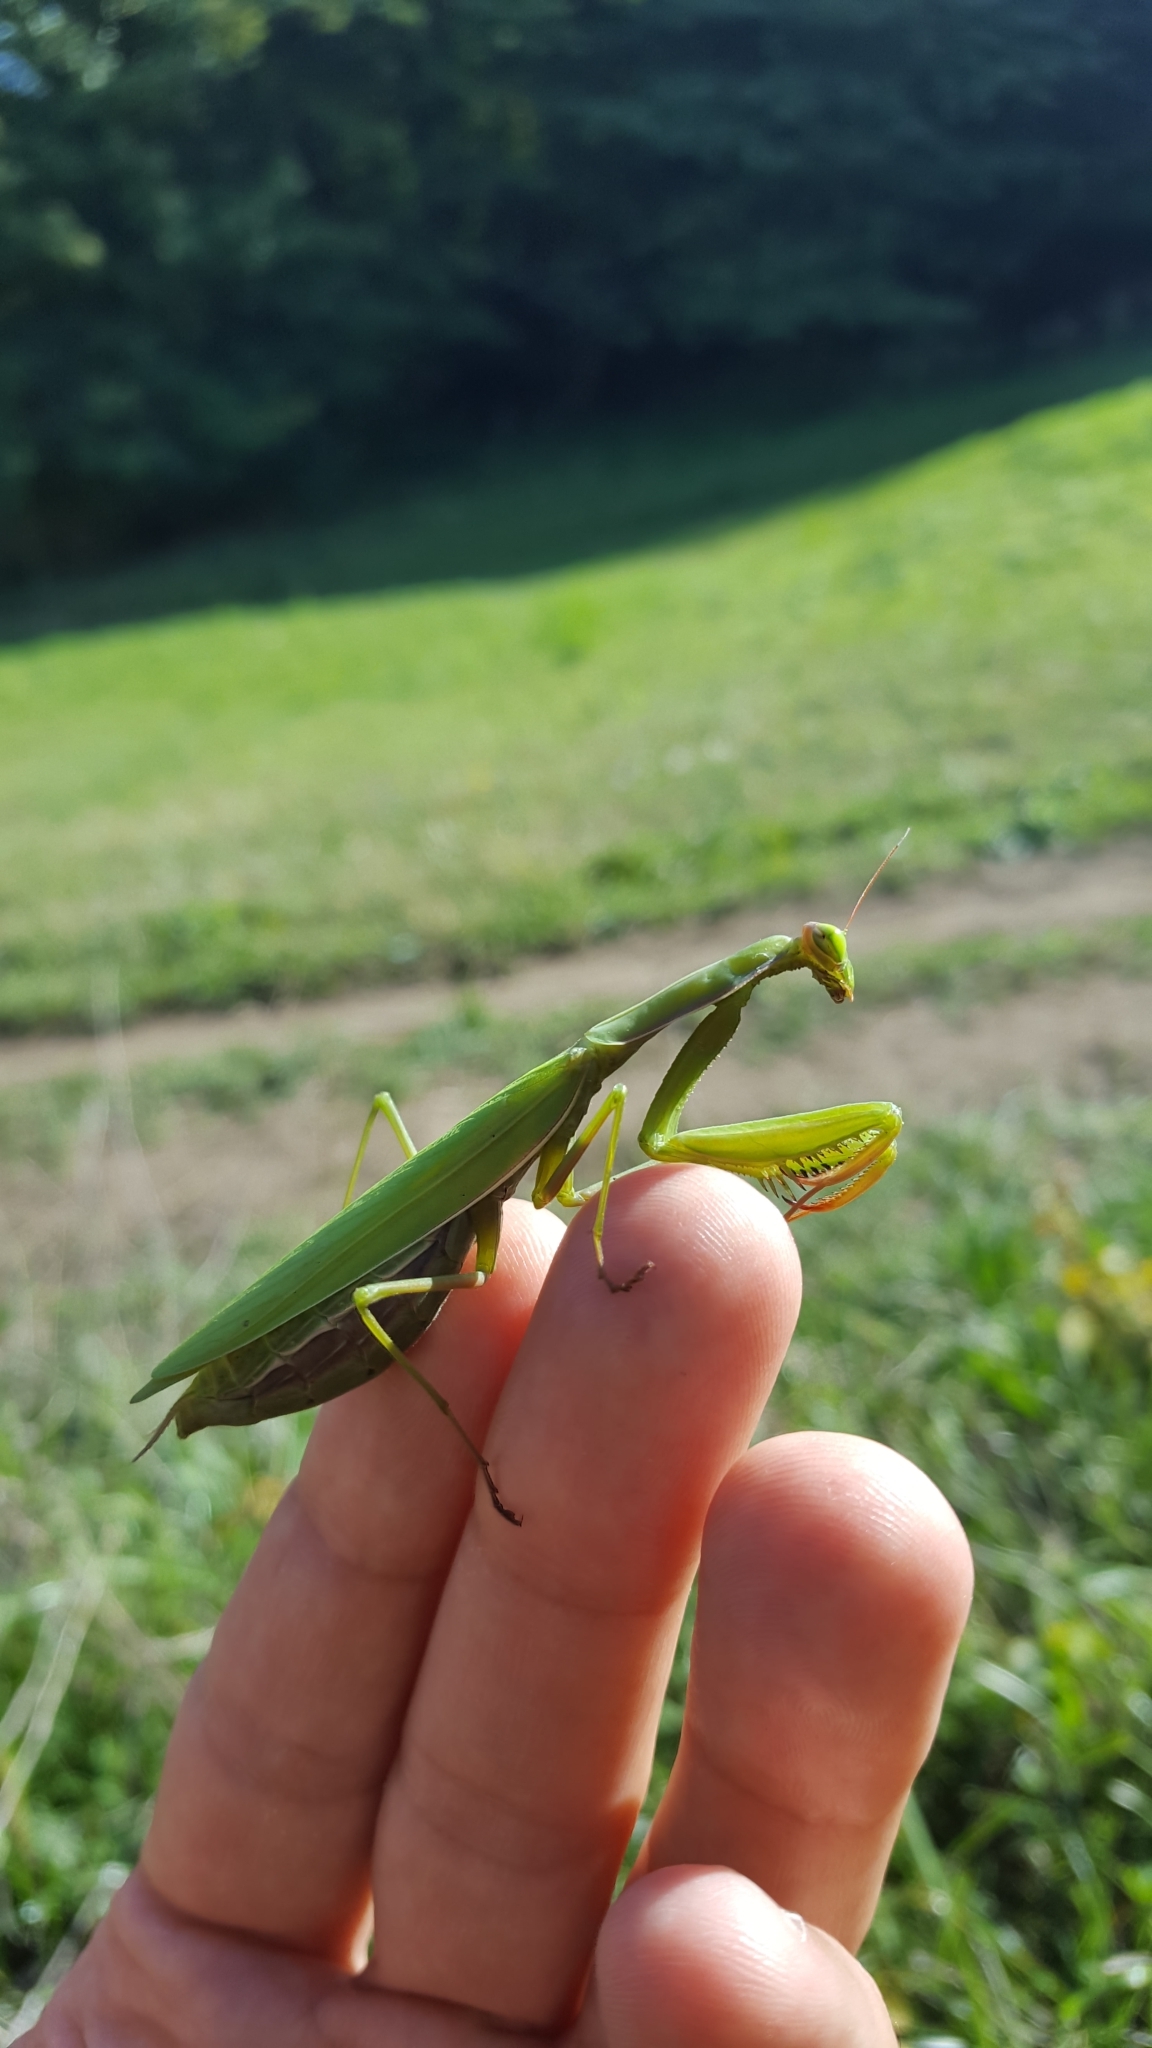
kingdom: Animalia
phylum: Arthropoda
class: Insecta
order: Mantodea
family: Mantidae
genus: Mantis
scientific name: Mantis religiosa
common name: Praying mantis
